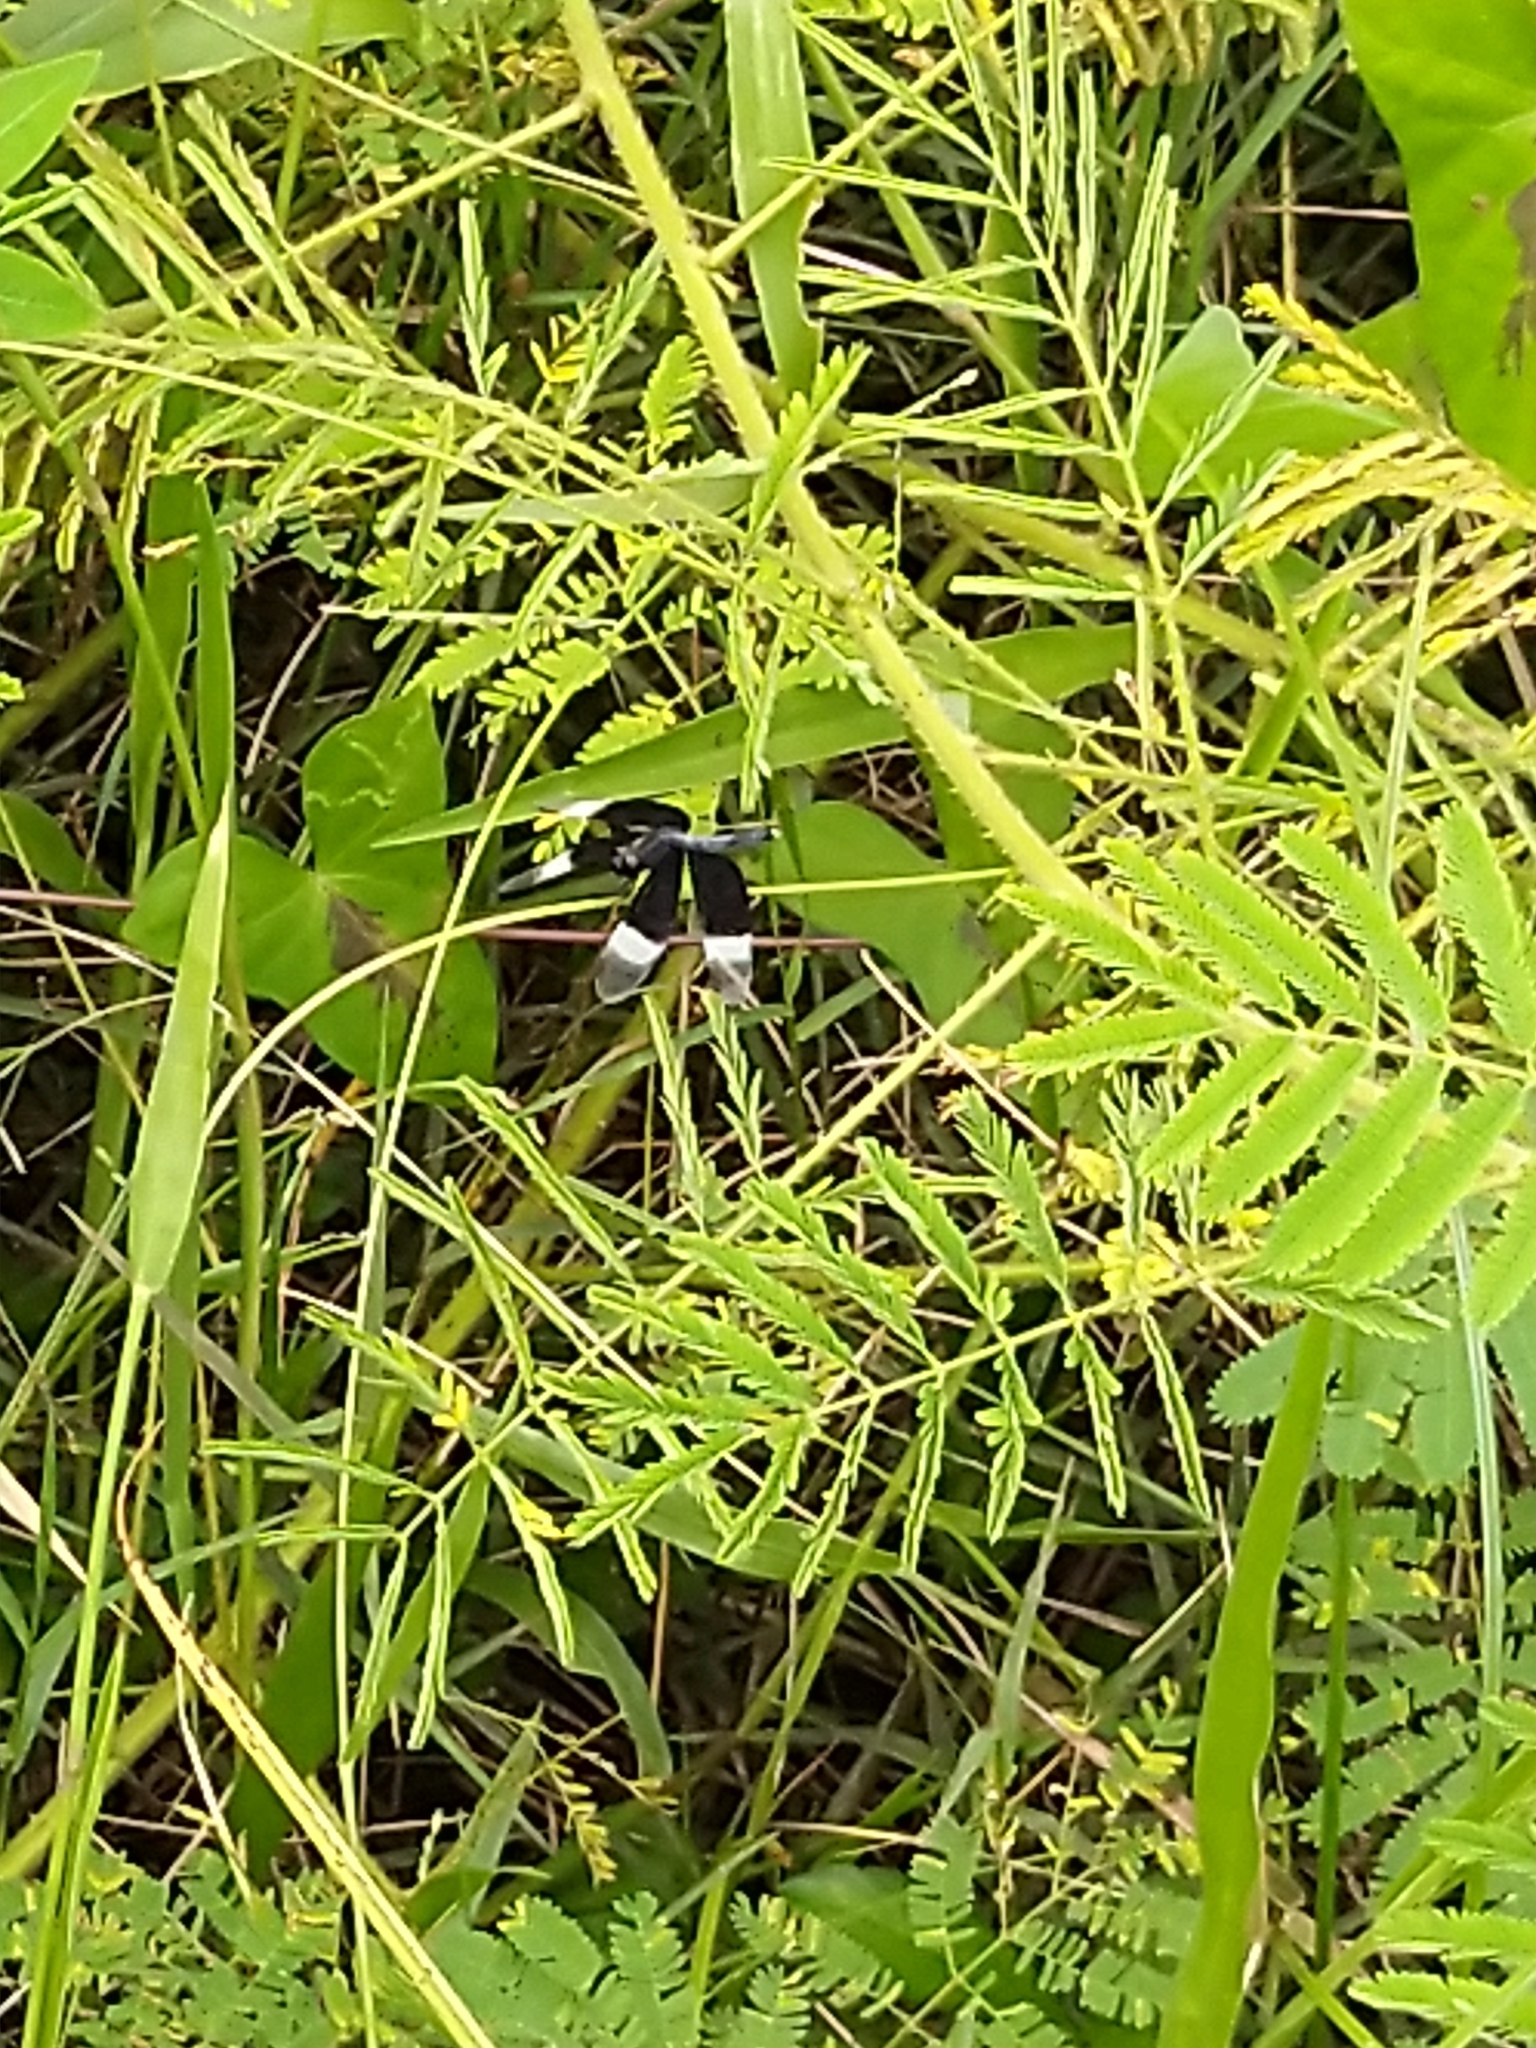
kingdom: Animalia
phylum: Arthropoda
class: Insecta
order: Odonata
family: Libellulidae
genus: Neurothemis
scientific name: Neurothemis tullia
